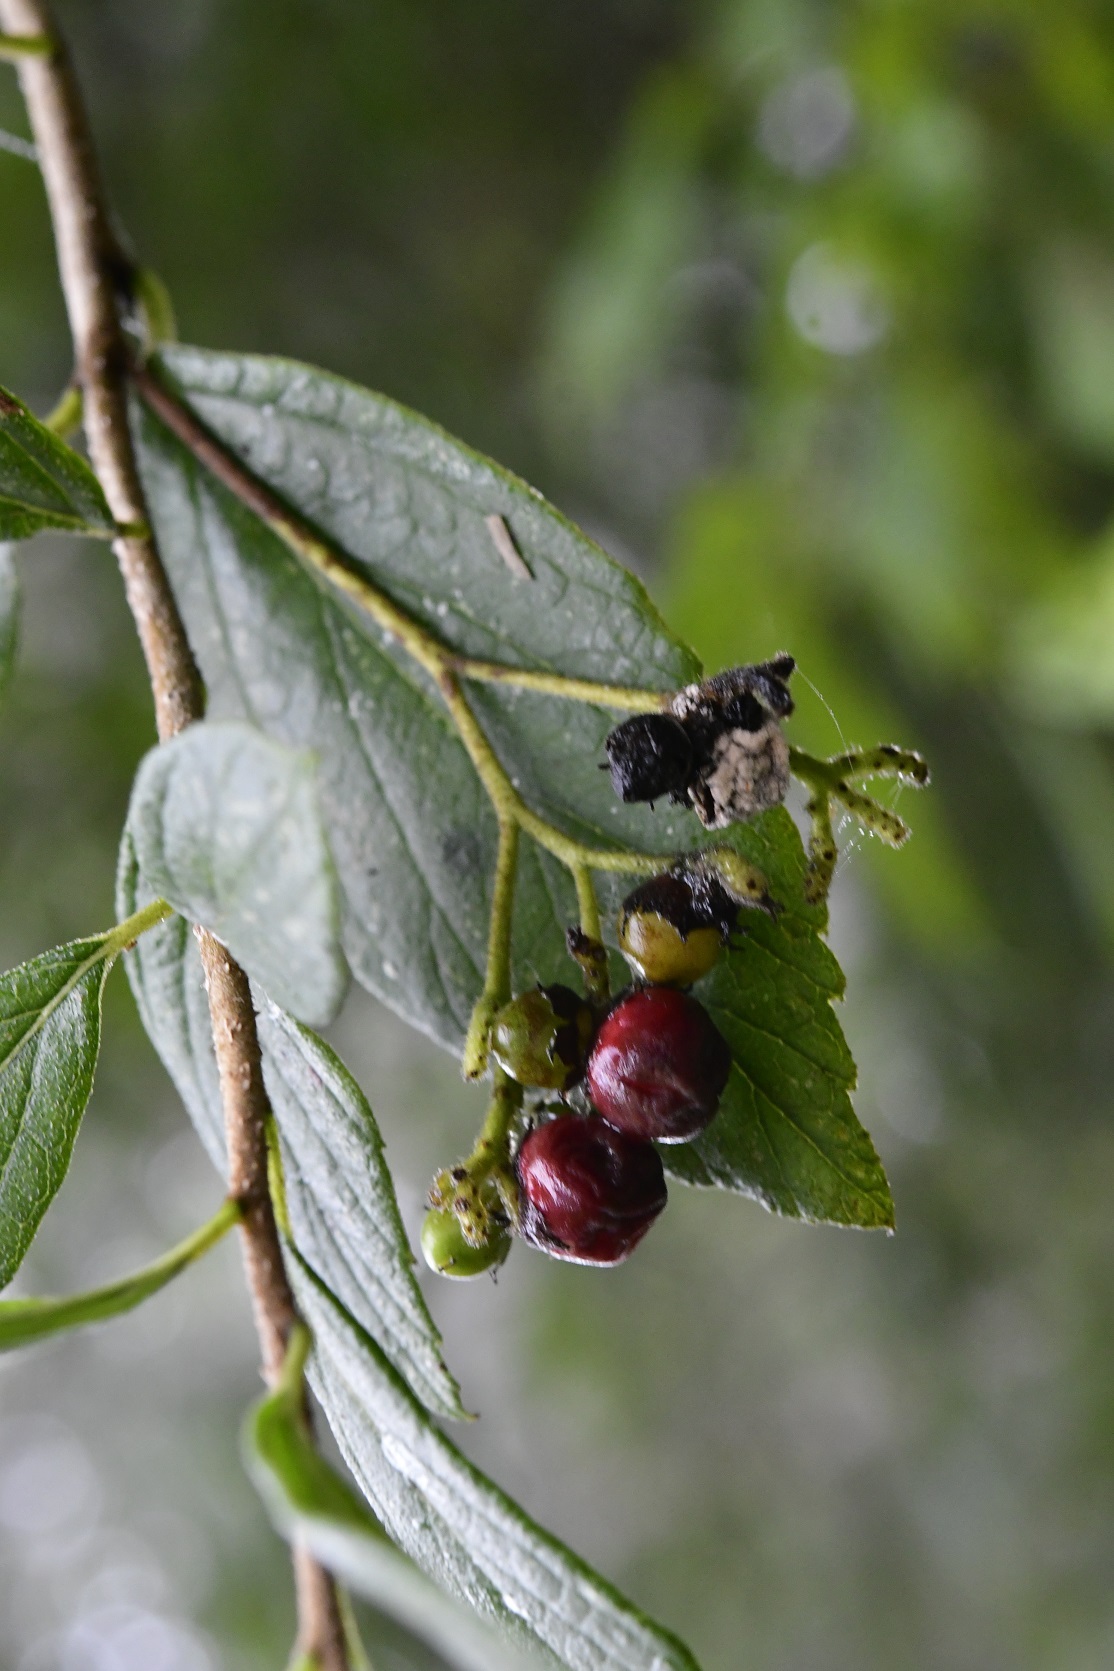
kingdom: Plantae
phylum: Tracheophyta
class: Magnoliopsida
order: Boraginales
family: Cordiaceae
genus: Varronia
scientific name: Varronia foliosa
